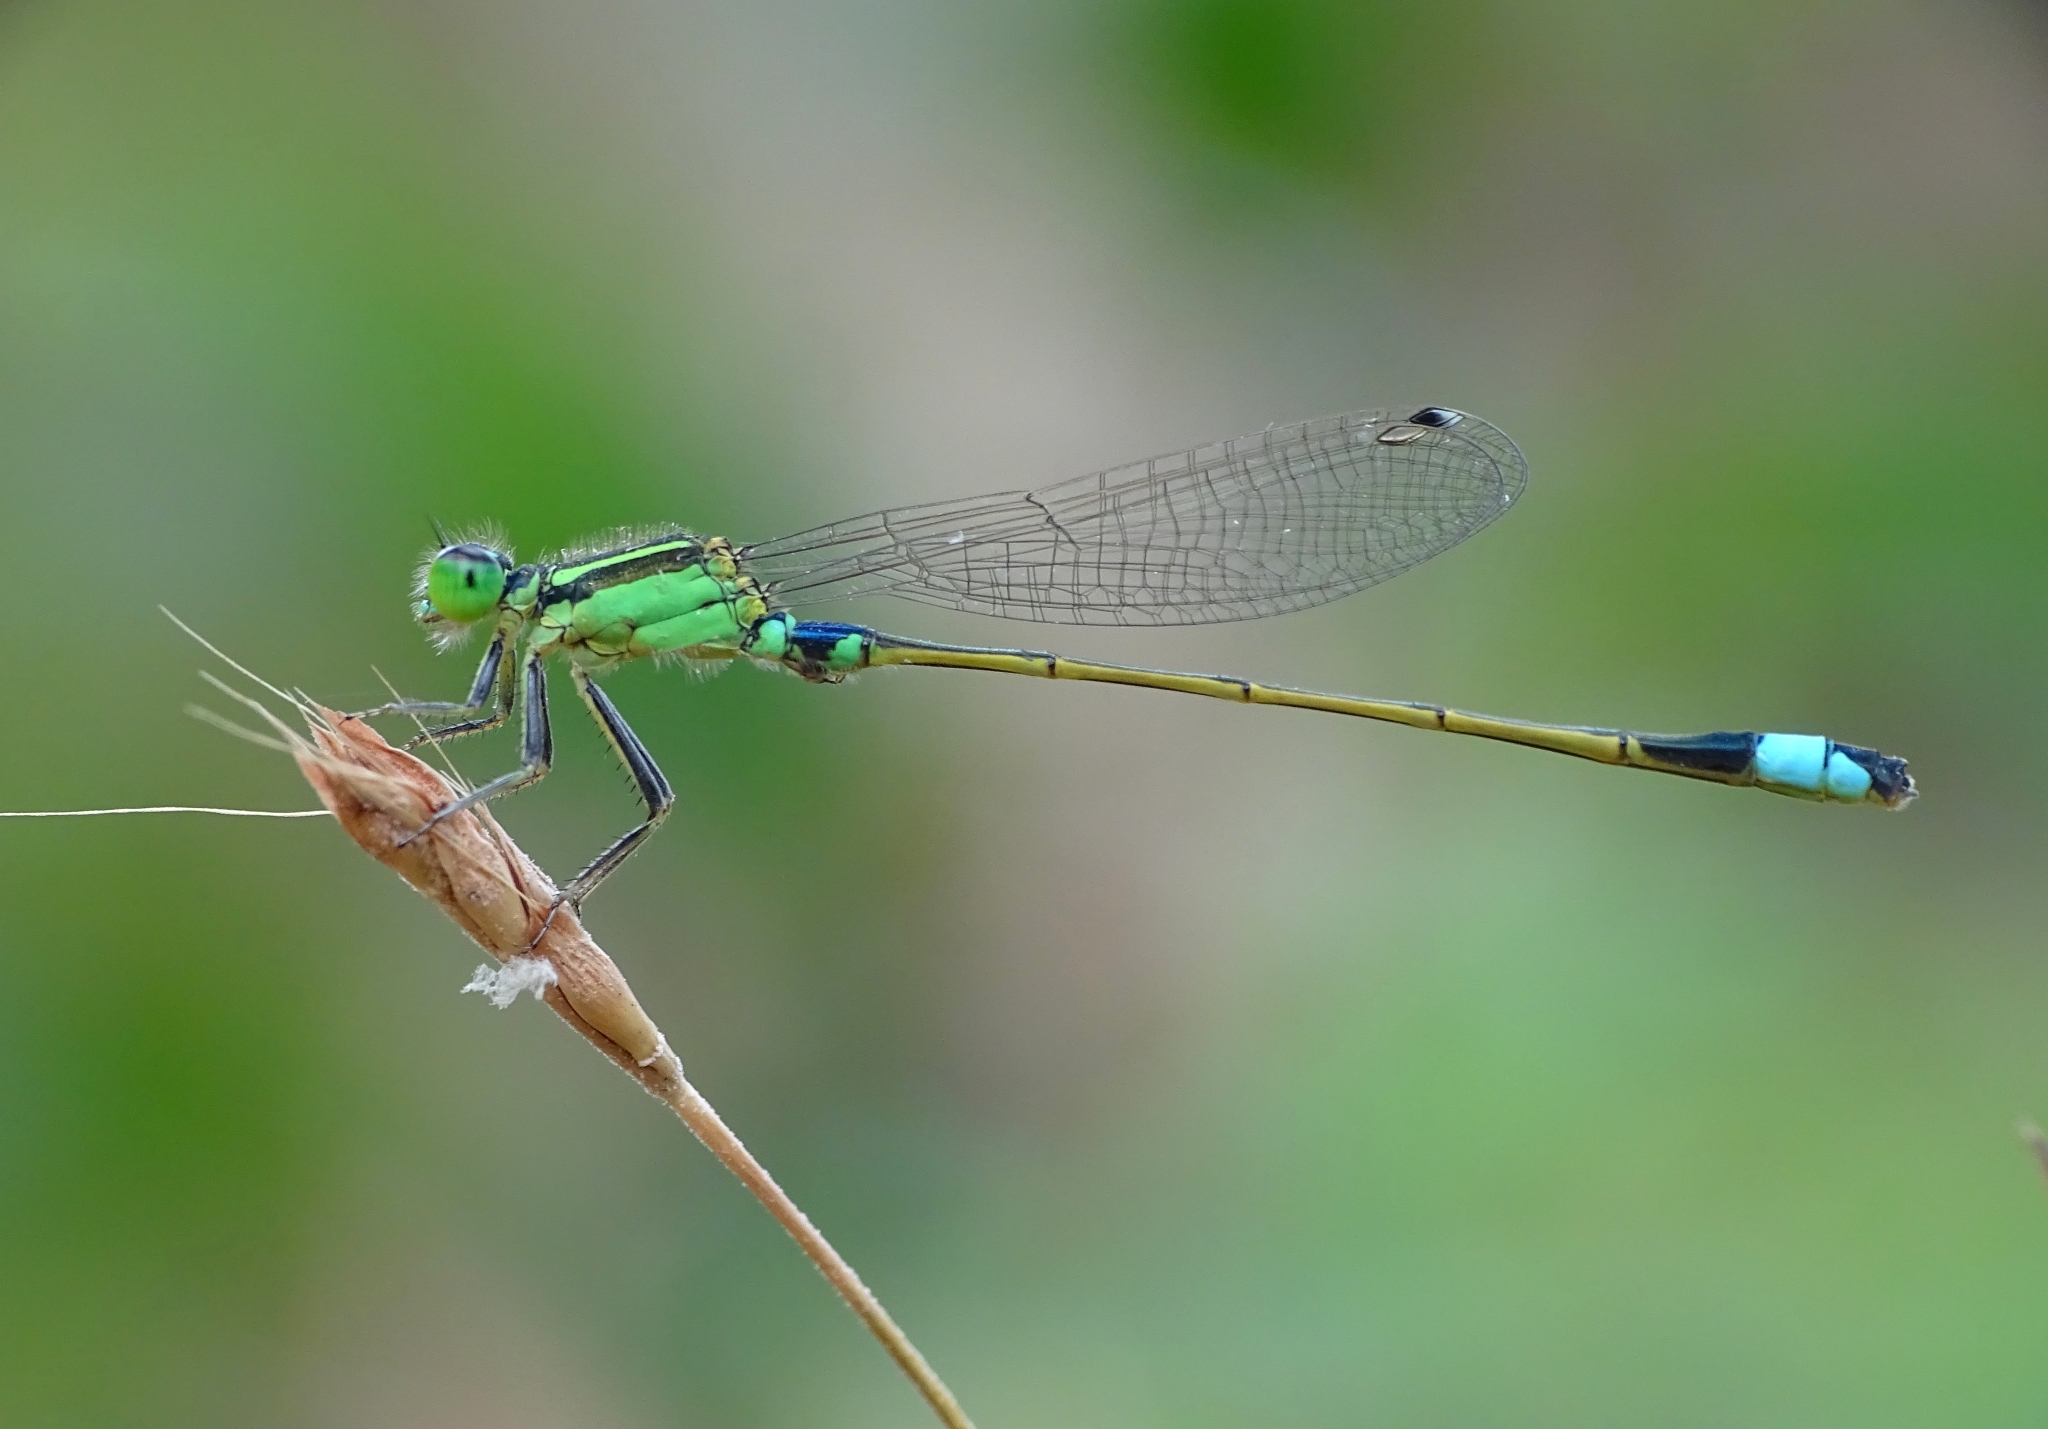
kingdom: Animalia
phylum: Arthropoda
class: Insecta
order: Odonata
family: Coenagrionidae
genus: Ischnura
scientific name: Ischnura senegalensis
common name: Tropical bluetail
